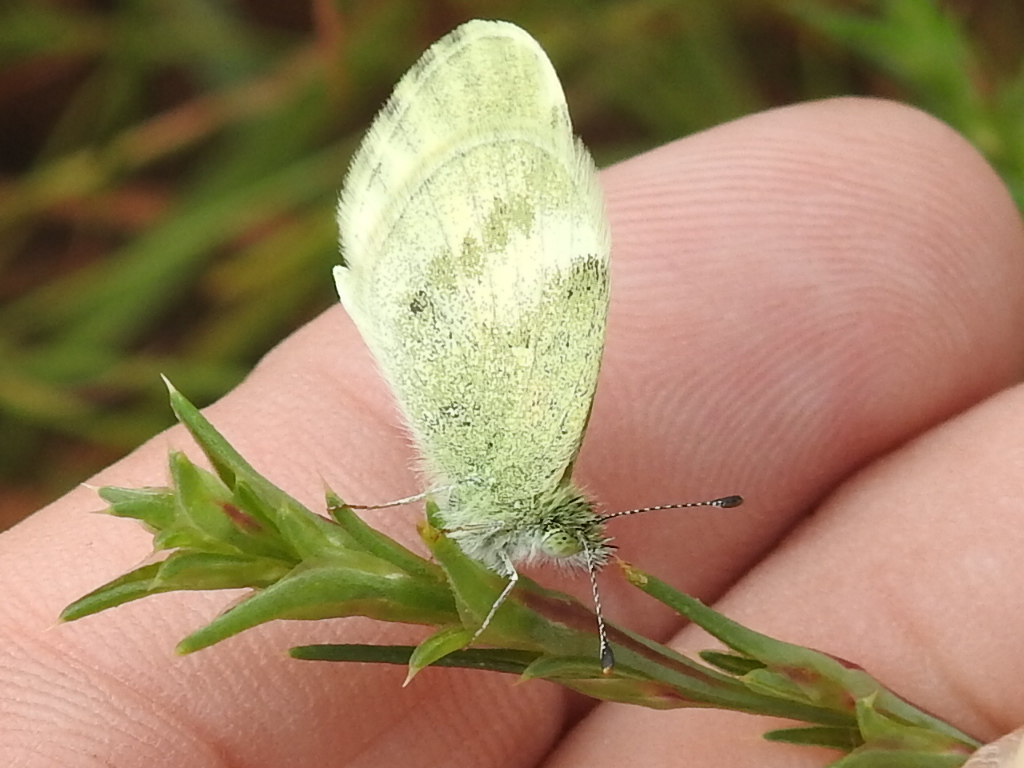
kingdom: Animalia
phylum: Arthropoda
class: Insecta
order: Lepidoptera
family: Pieridae
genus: Nathalis
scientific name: Nathalis iole
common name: Dainty sulphur
